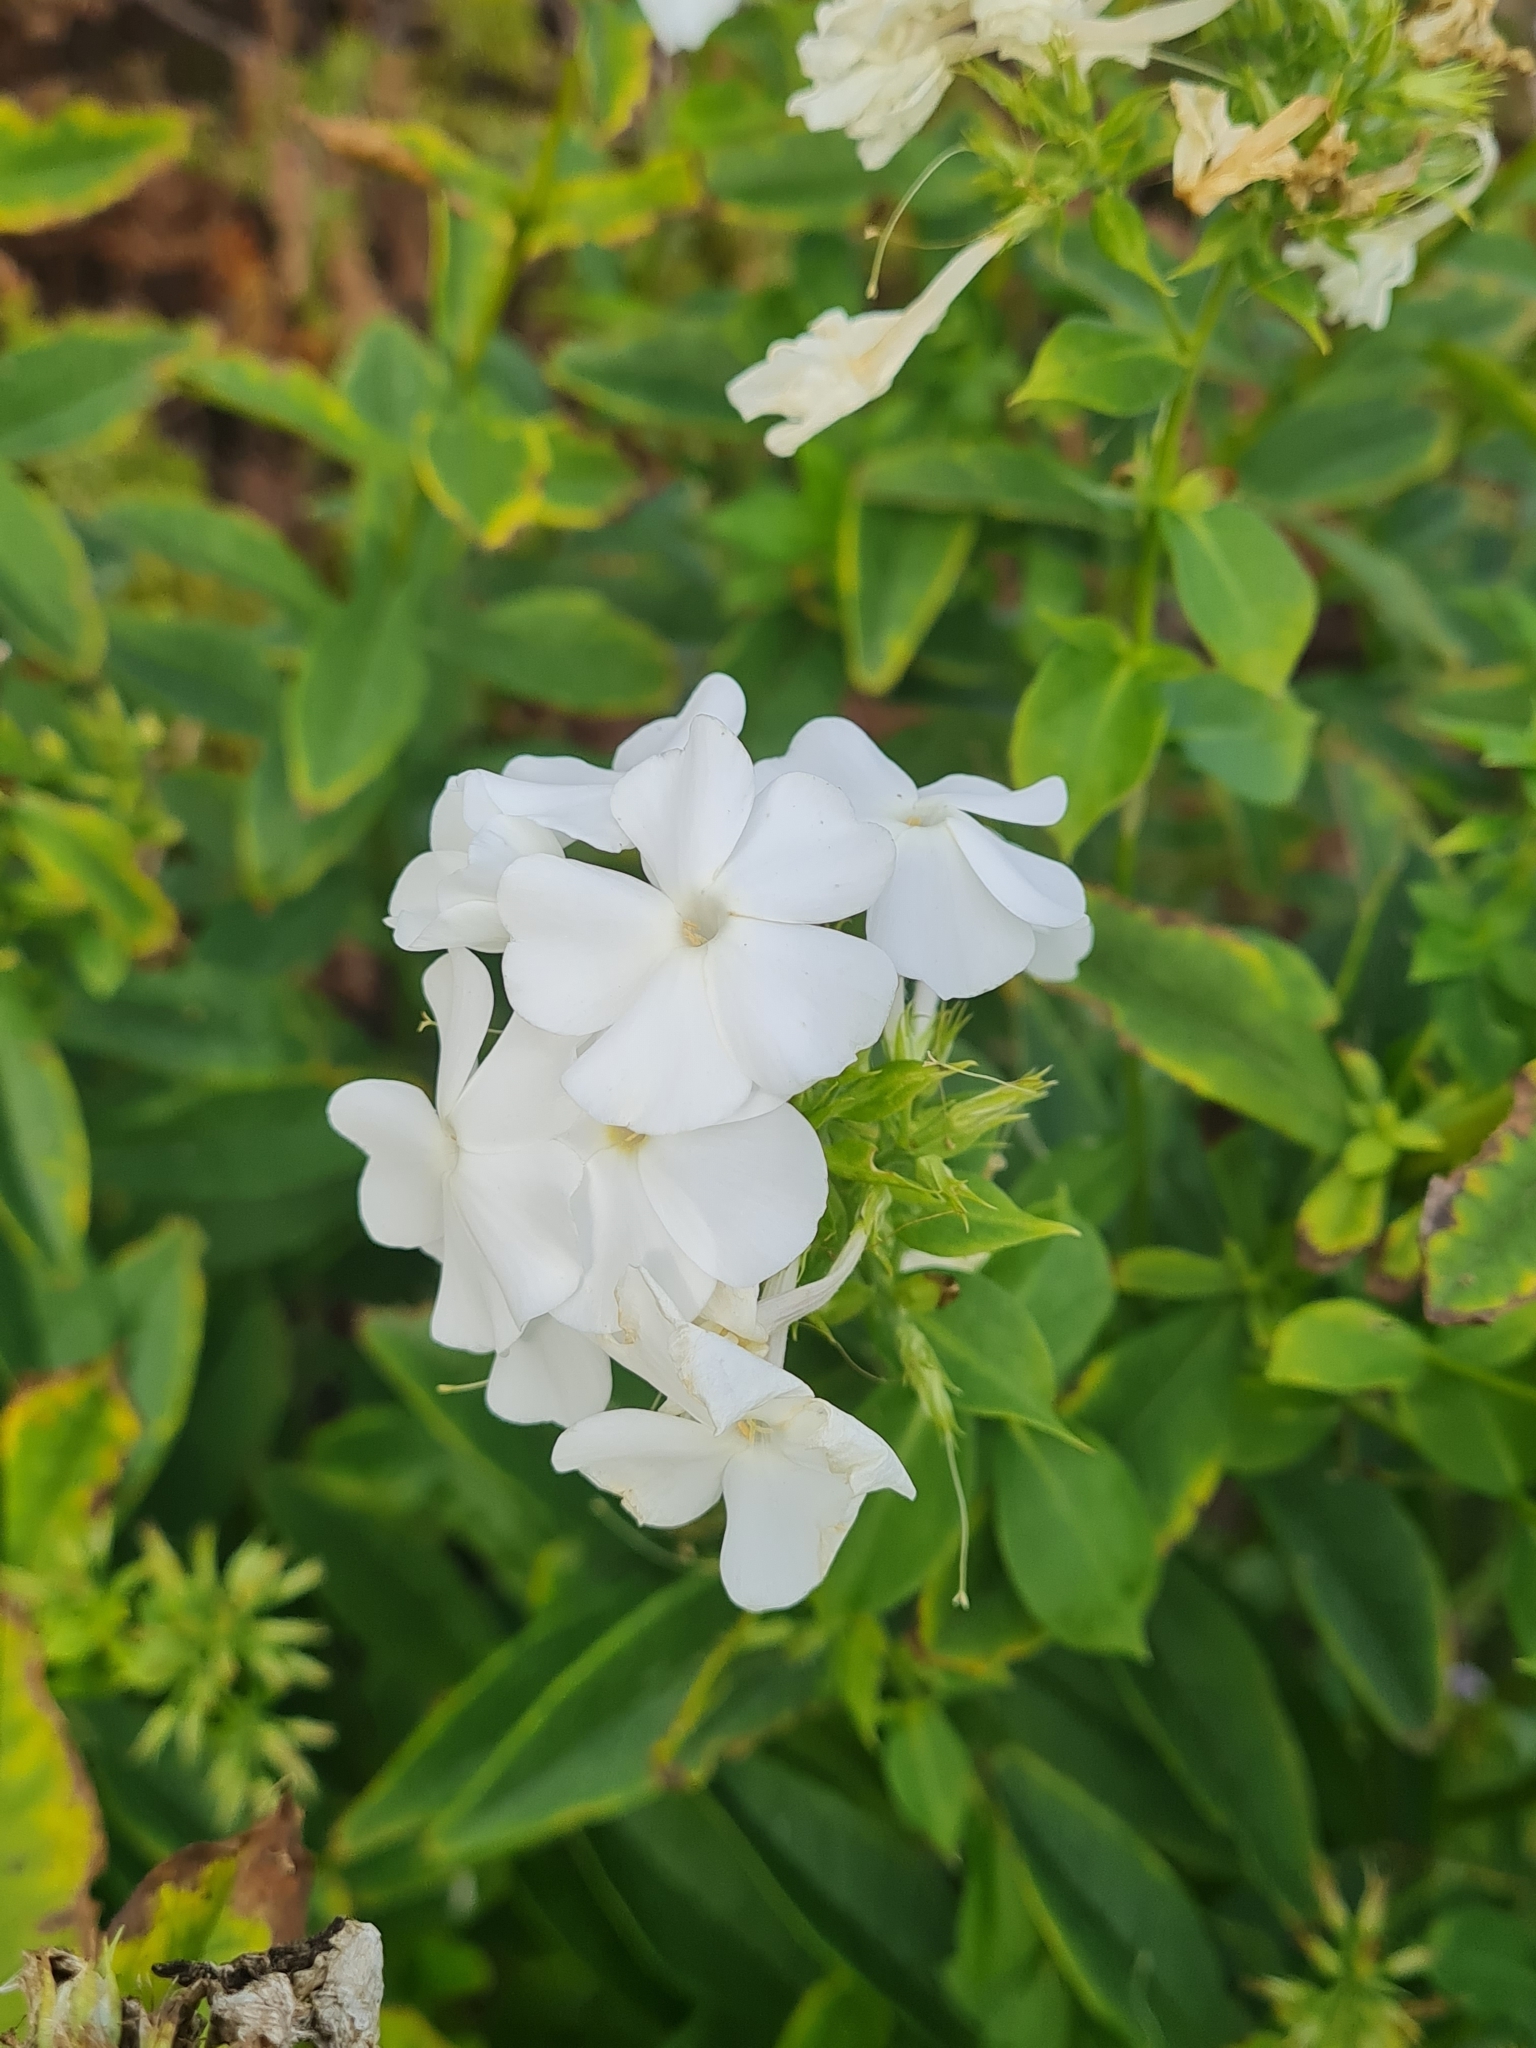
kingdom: Plantae
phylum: Tracheophyta
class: Magnoliopsida
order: Ericales
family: Polemoniaceae
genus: Phlox
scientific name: Phlox paniculata
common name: Fall phlox
